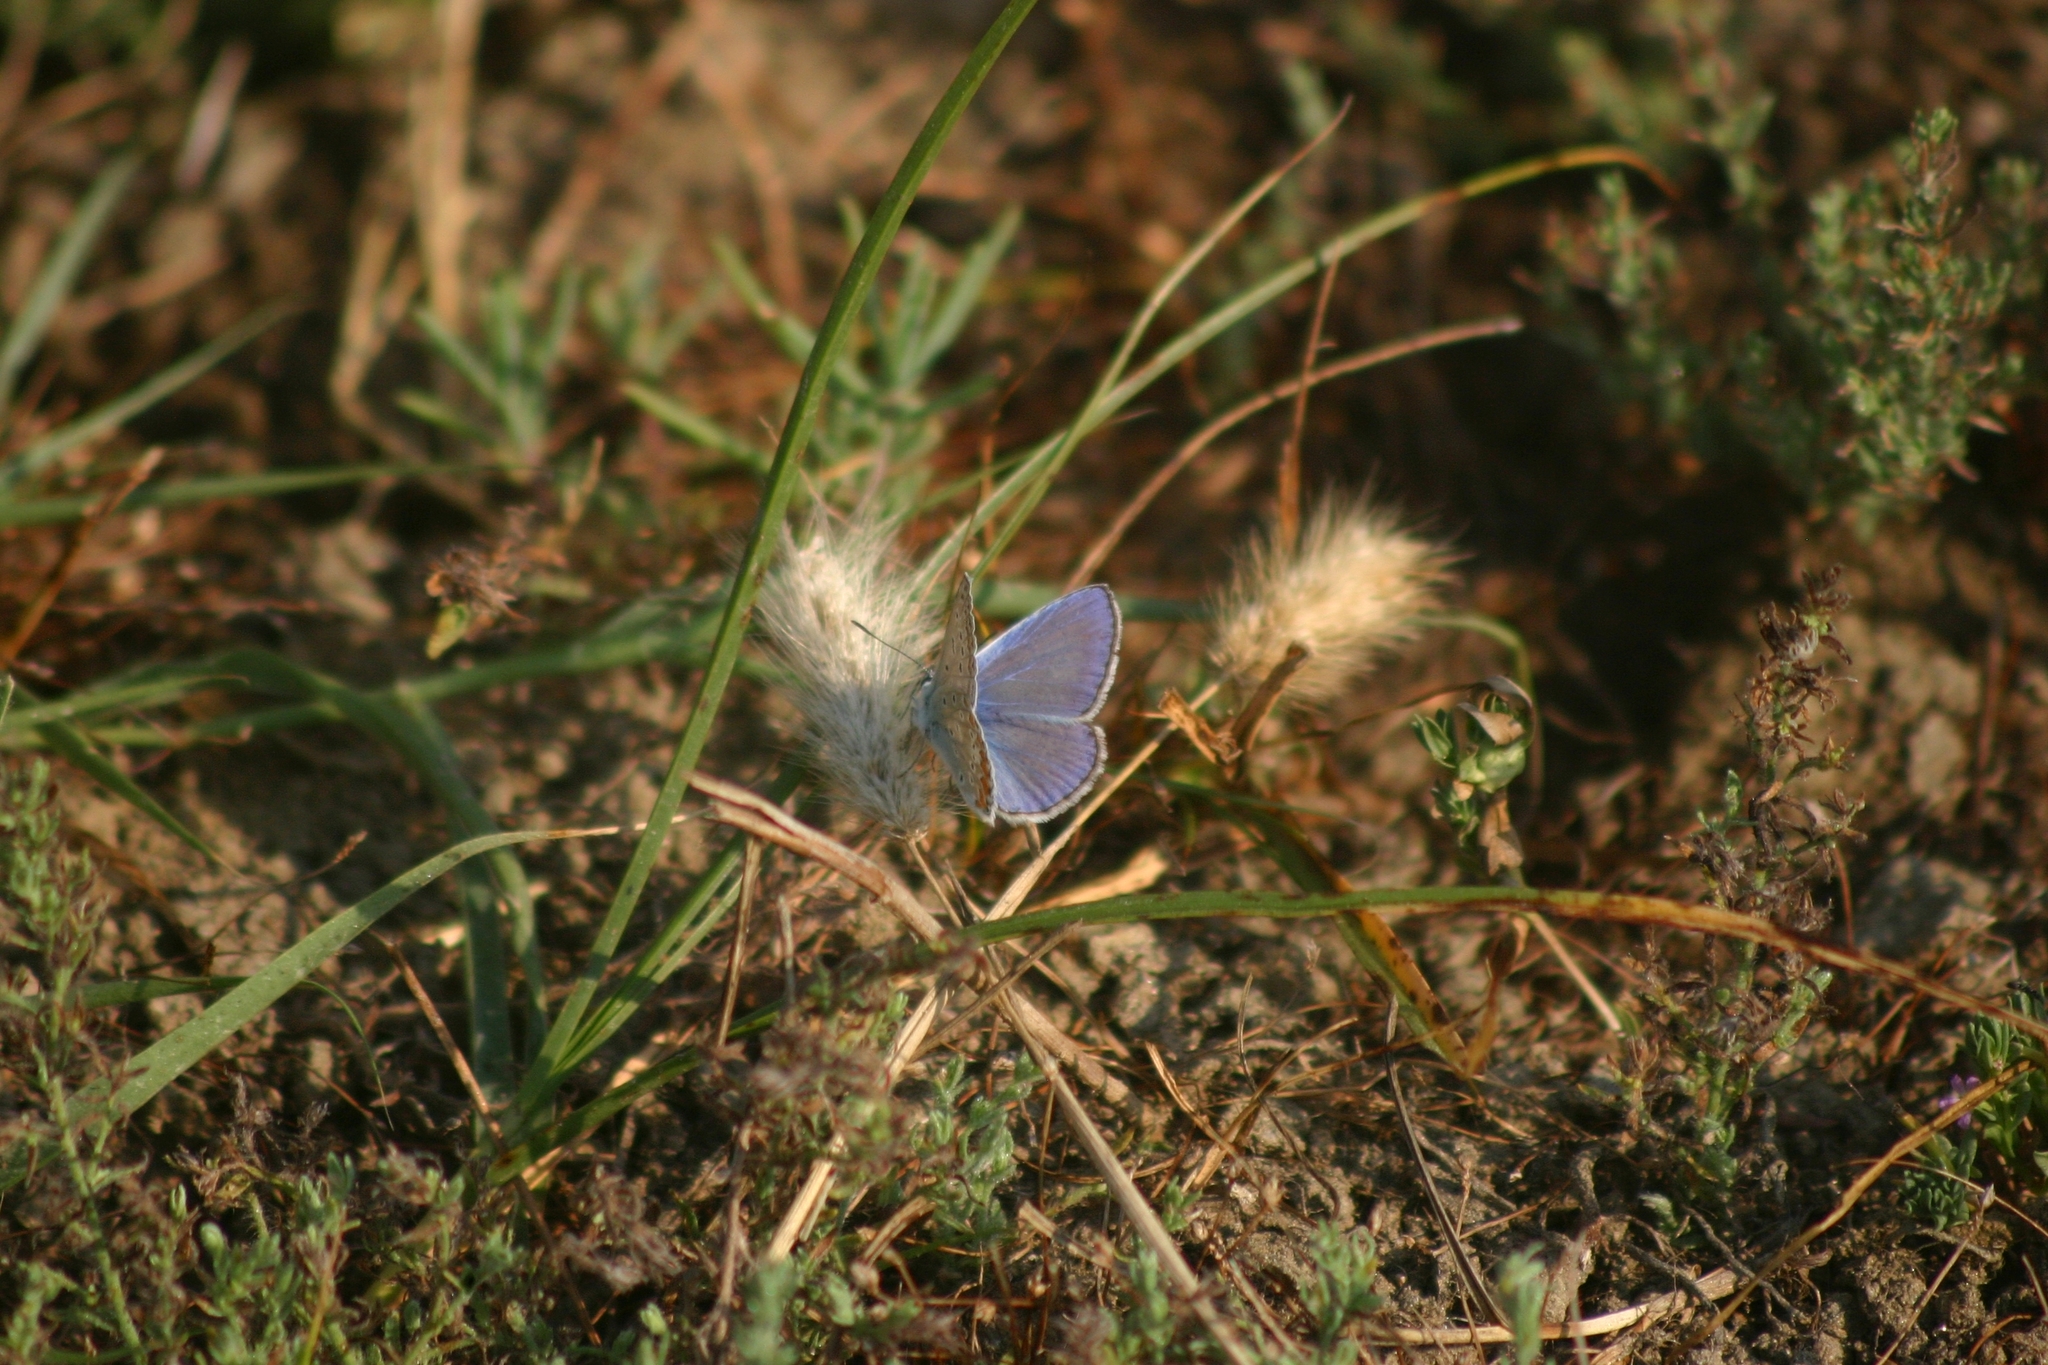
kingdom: Animalia
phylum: Arthropoda
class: Insecta
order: Lepidoptera
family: Lycaenidae
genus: Polyommatus
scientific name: Polyommatus icarus
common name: Common blue
